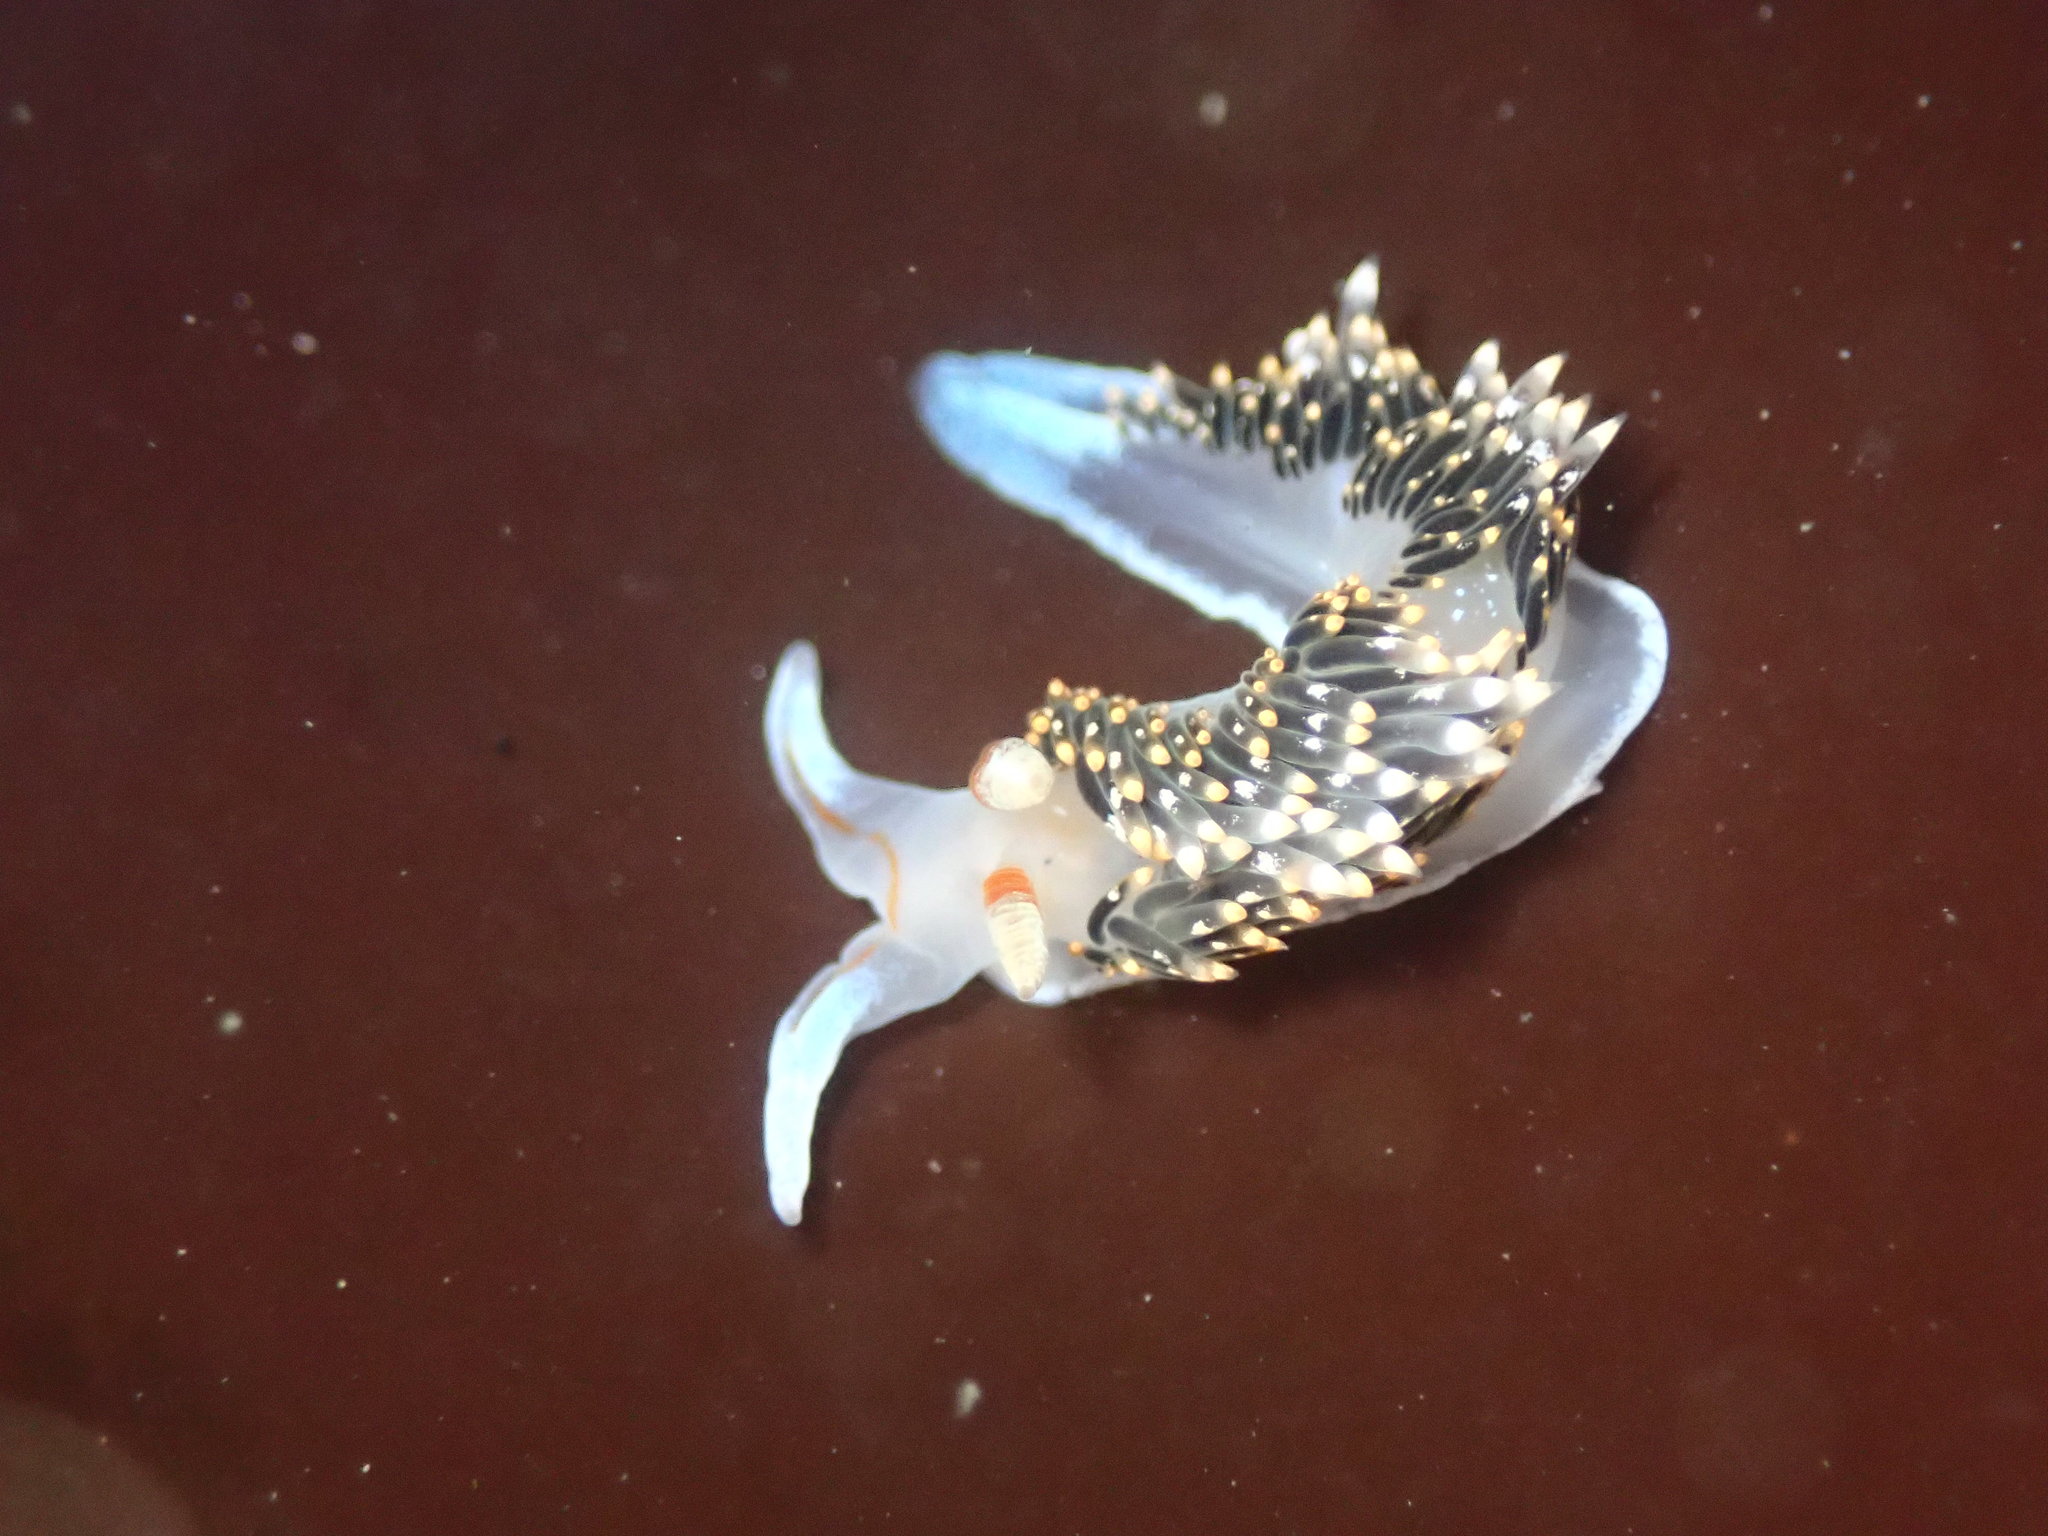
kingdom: Animalia
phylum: Mollusca
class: Gastropoda
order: Nudibranchia
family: Facelinidae
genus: Phidiana
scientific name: Phidiana hiltoni
